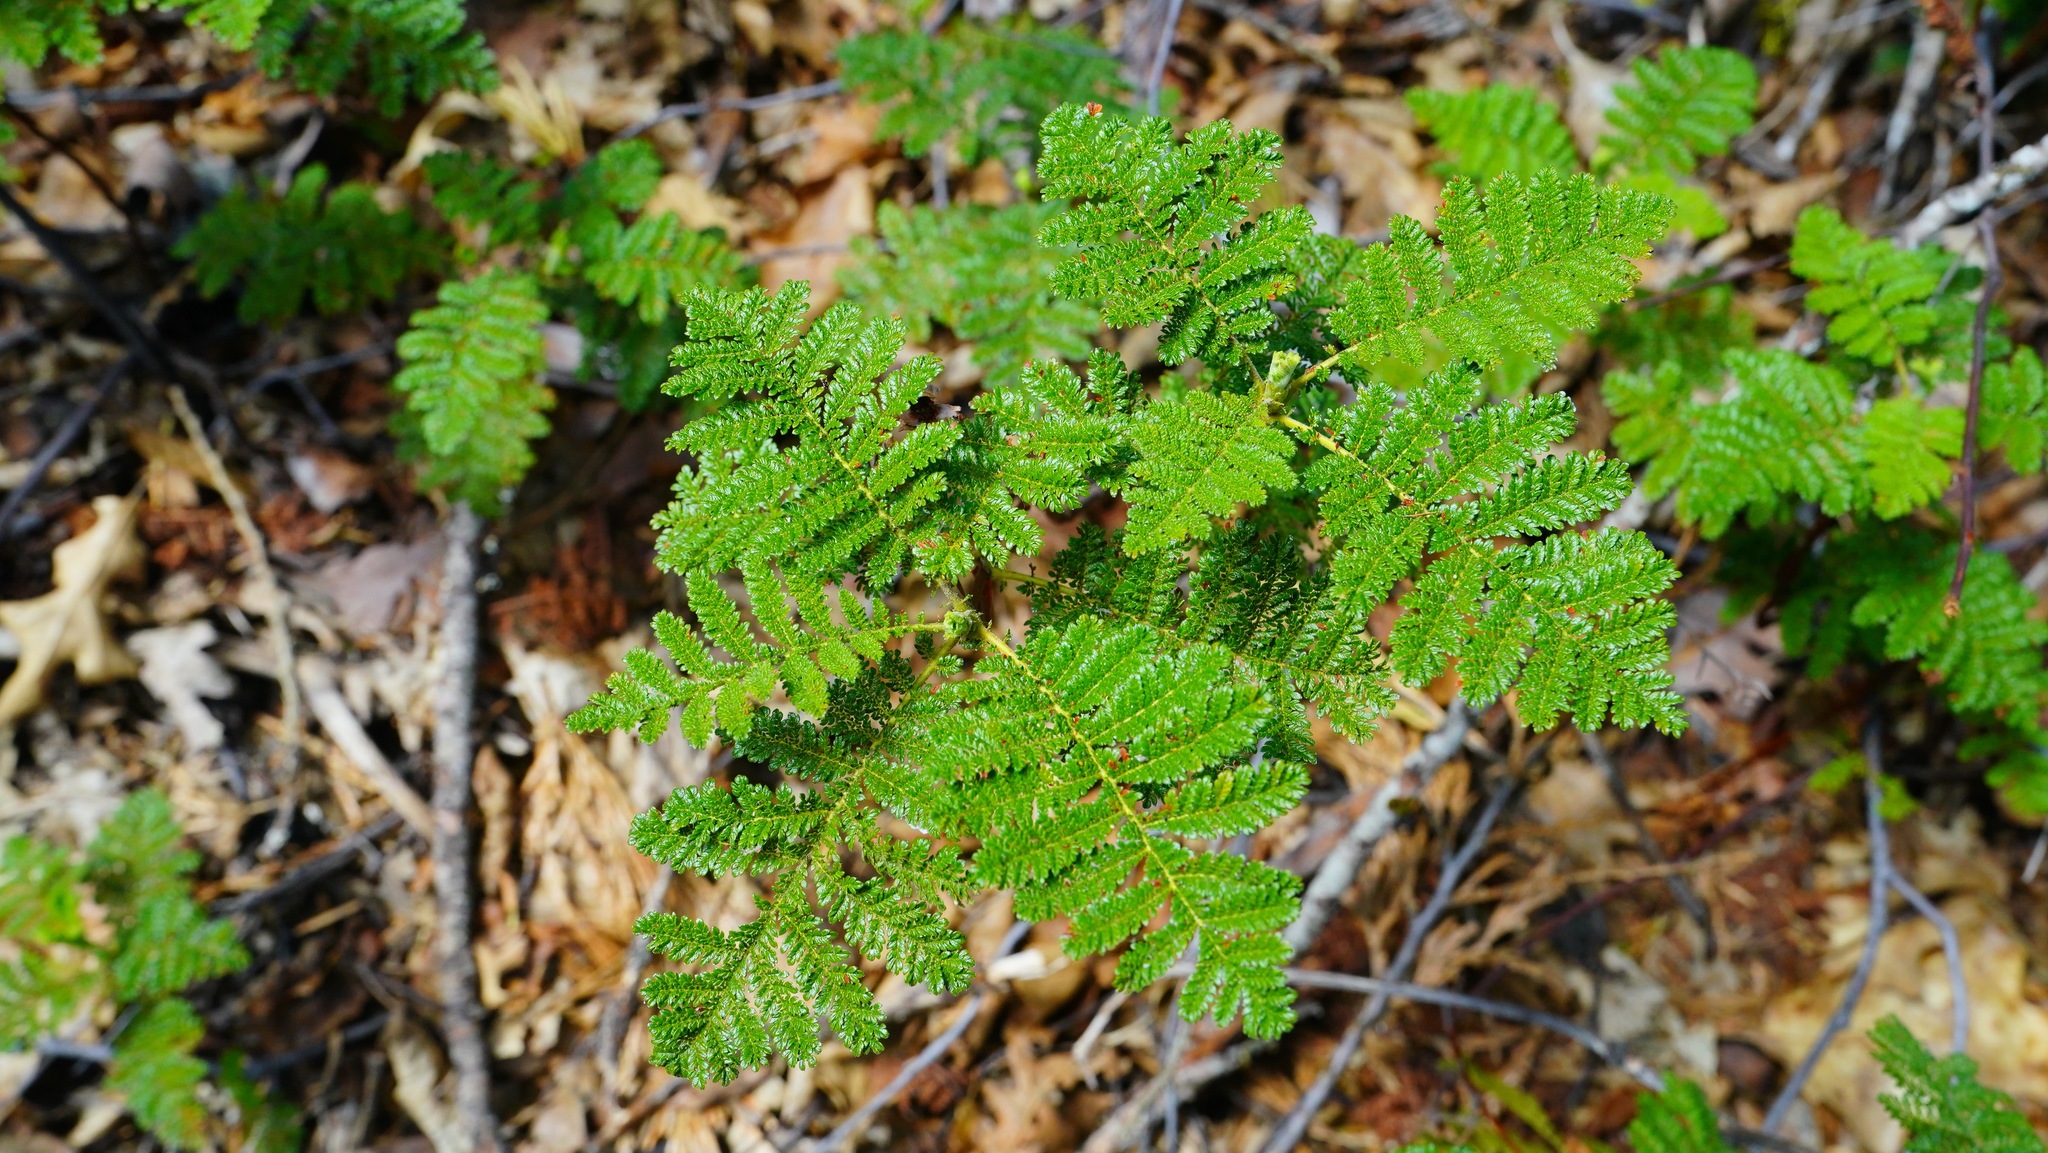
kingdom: Plantae
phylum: Tracheophyta
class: Magnoliopsida
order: Rosales
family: Rosaceae
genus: Chamaebatia
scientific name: Chamaebatia foliolosa
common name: Mountain misery
